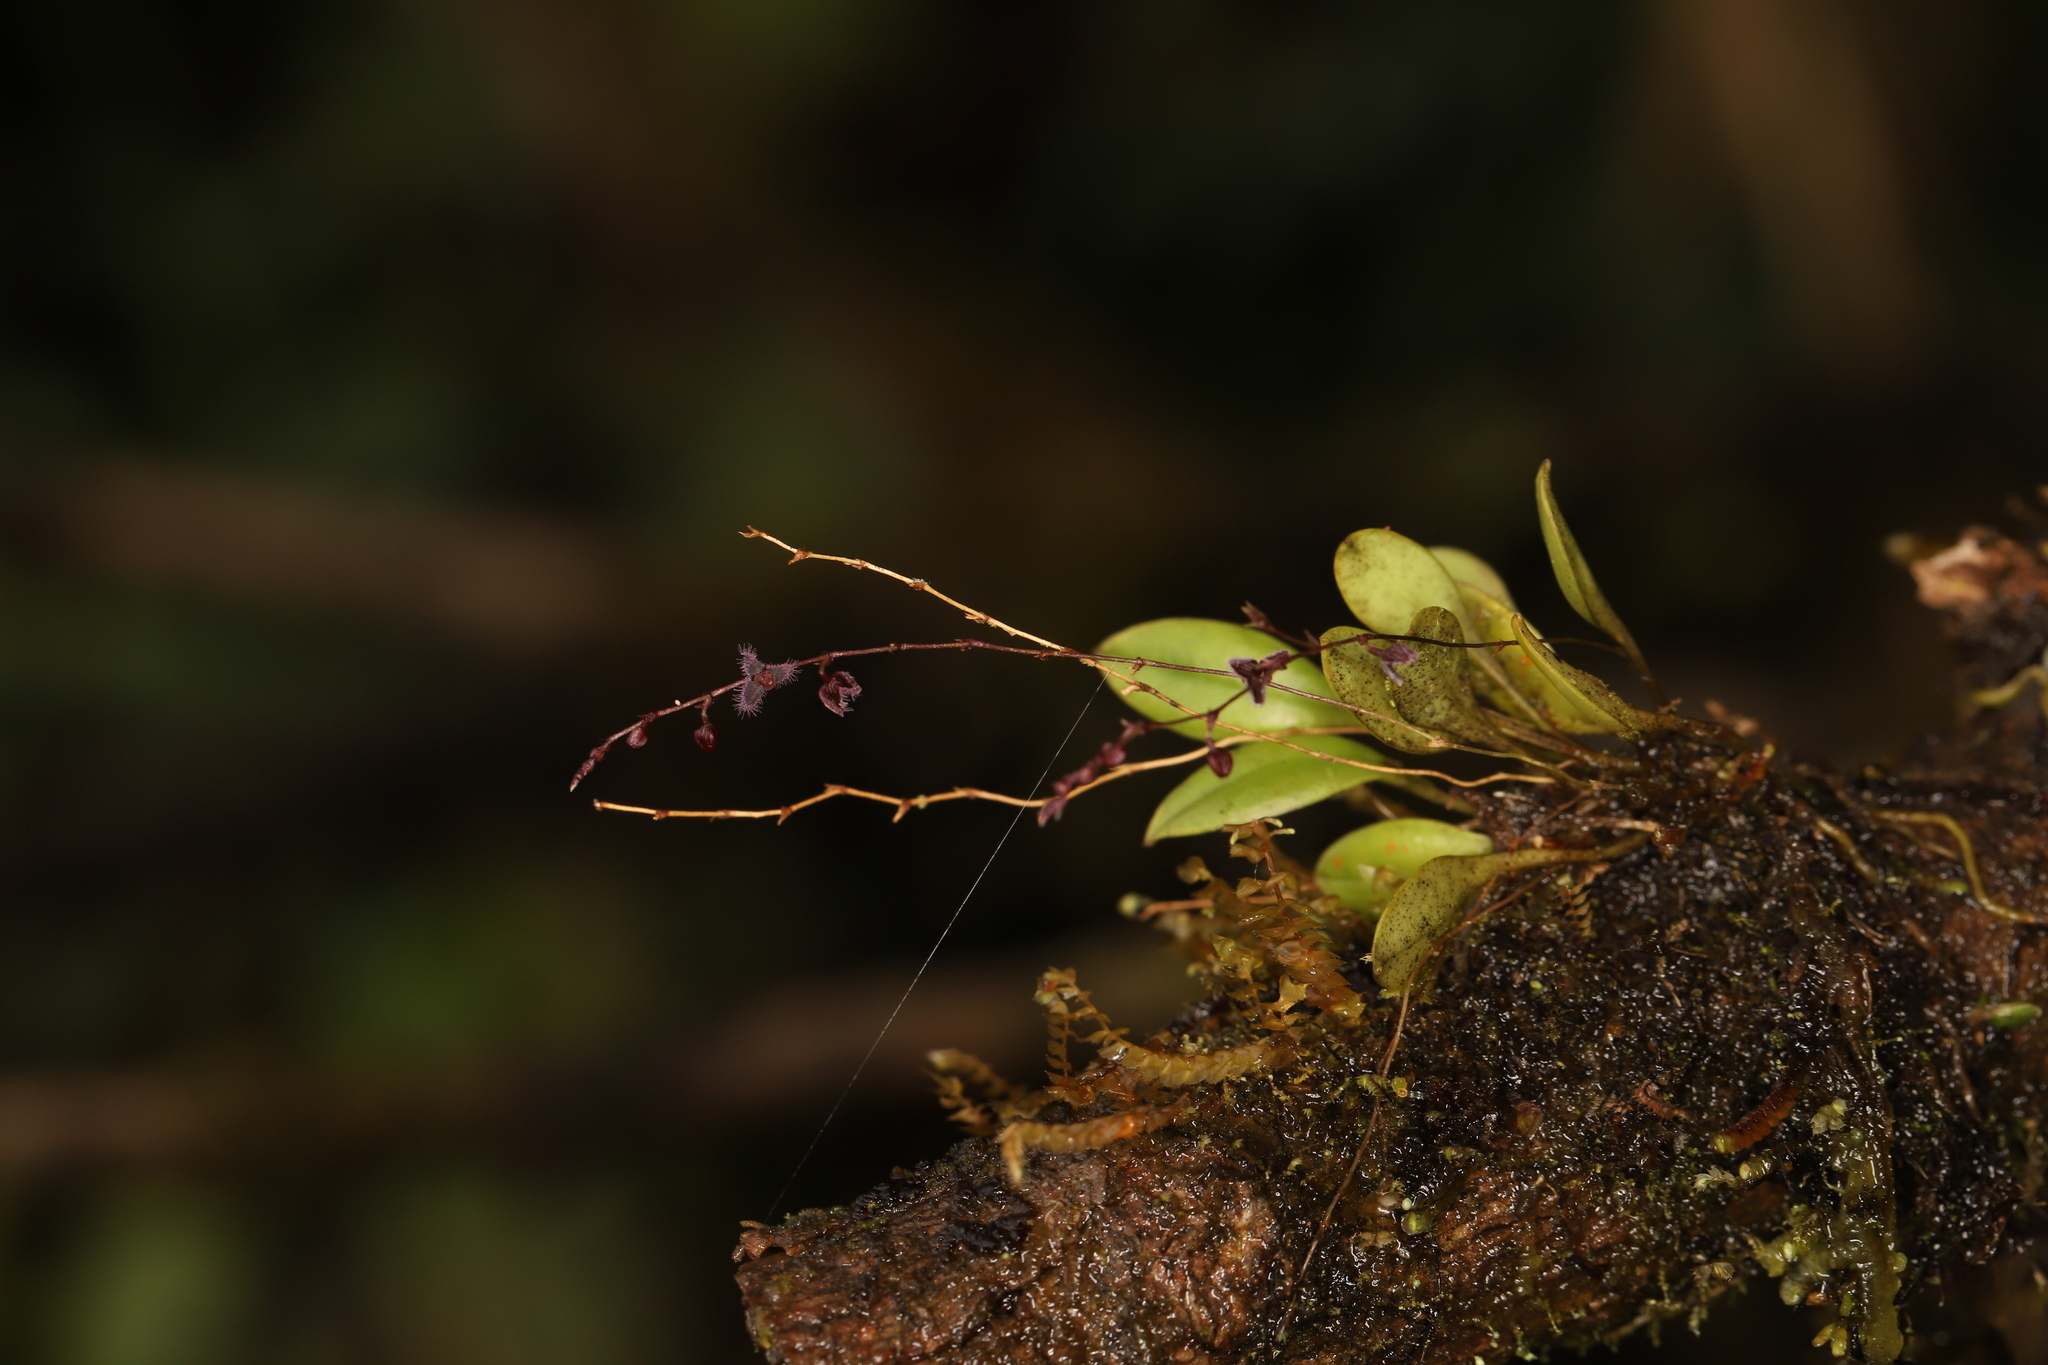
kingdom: Plantae
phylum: Tracheophyta
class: Liliopsida
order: Asparagales
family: Orchidaceae
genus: Stelis
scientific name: Stelis concinna
